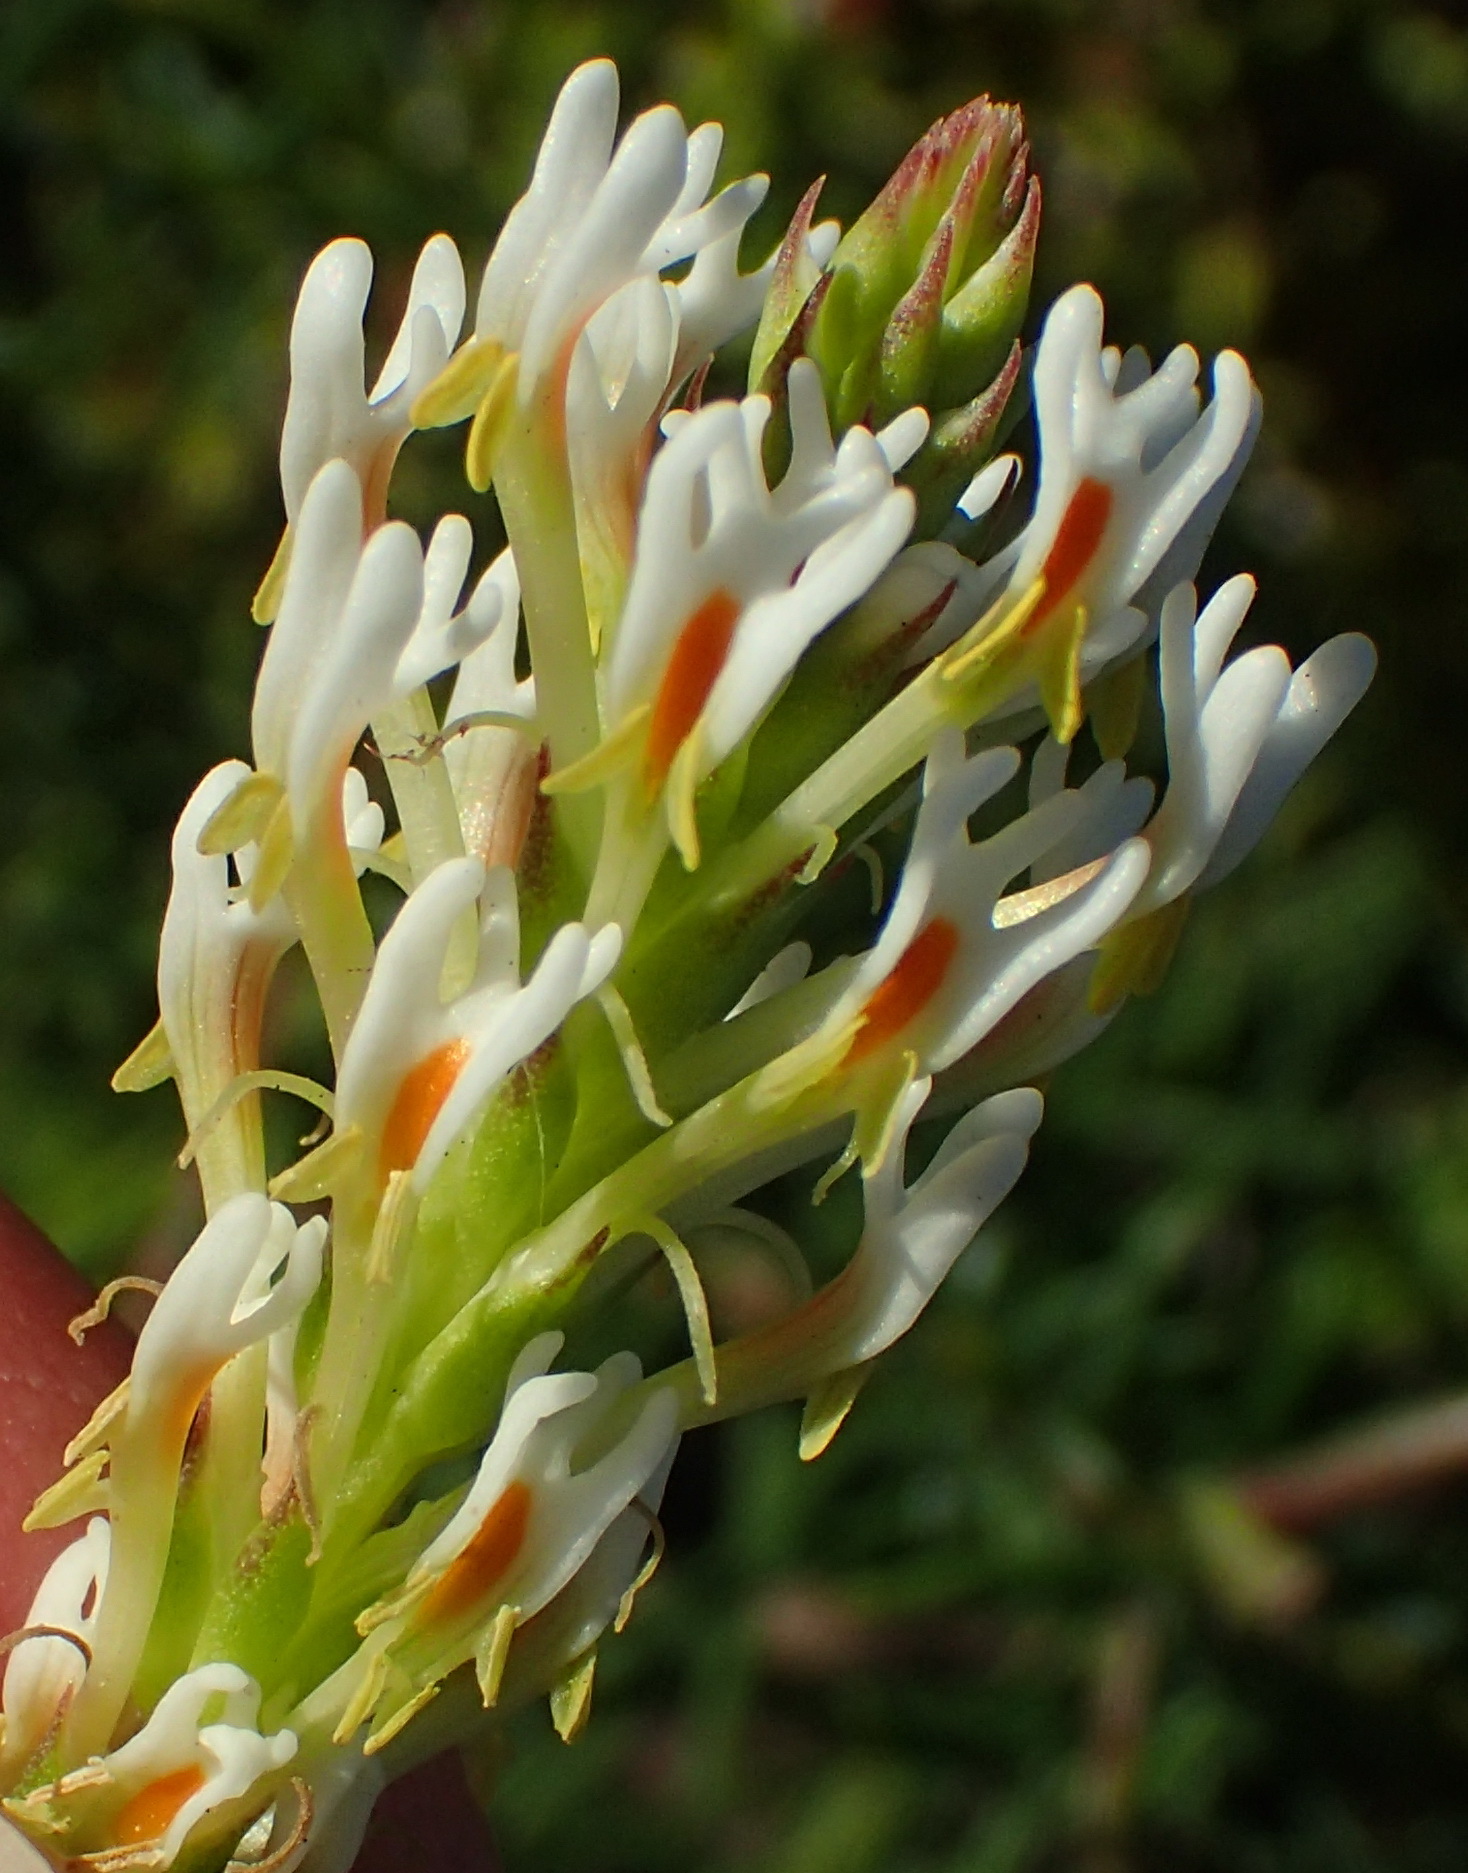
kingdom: Plantae
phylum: Tracheophyta
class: Magnoliopsida
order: Lamiales
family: Scrophulariaceae
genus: Hebenstretia
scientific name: Hebenstretia integrifolia
